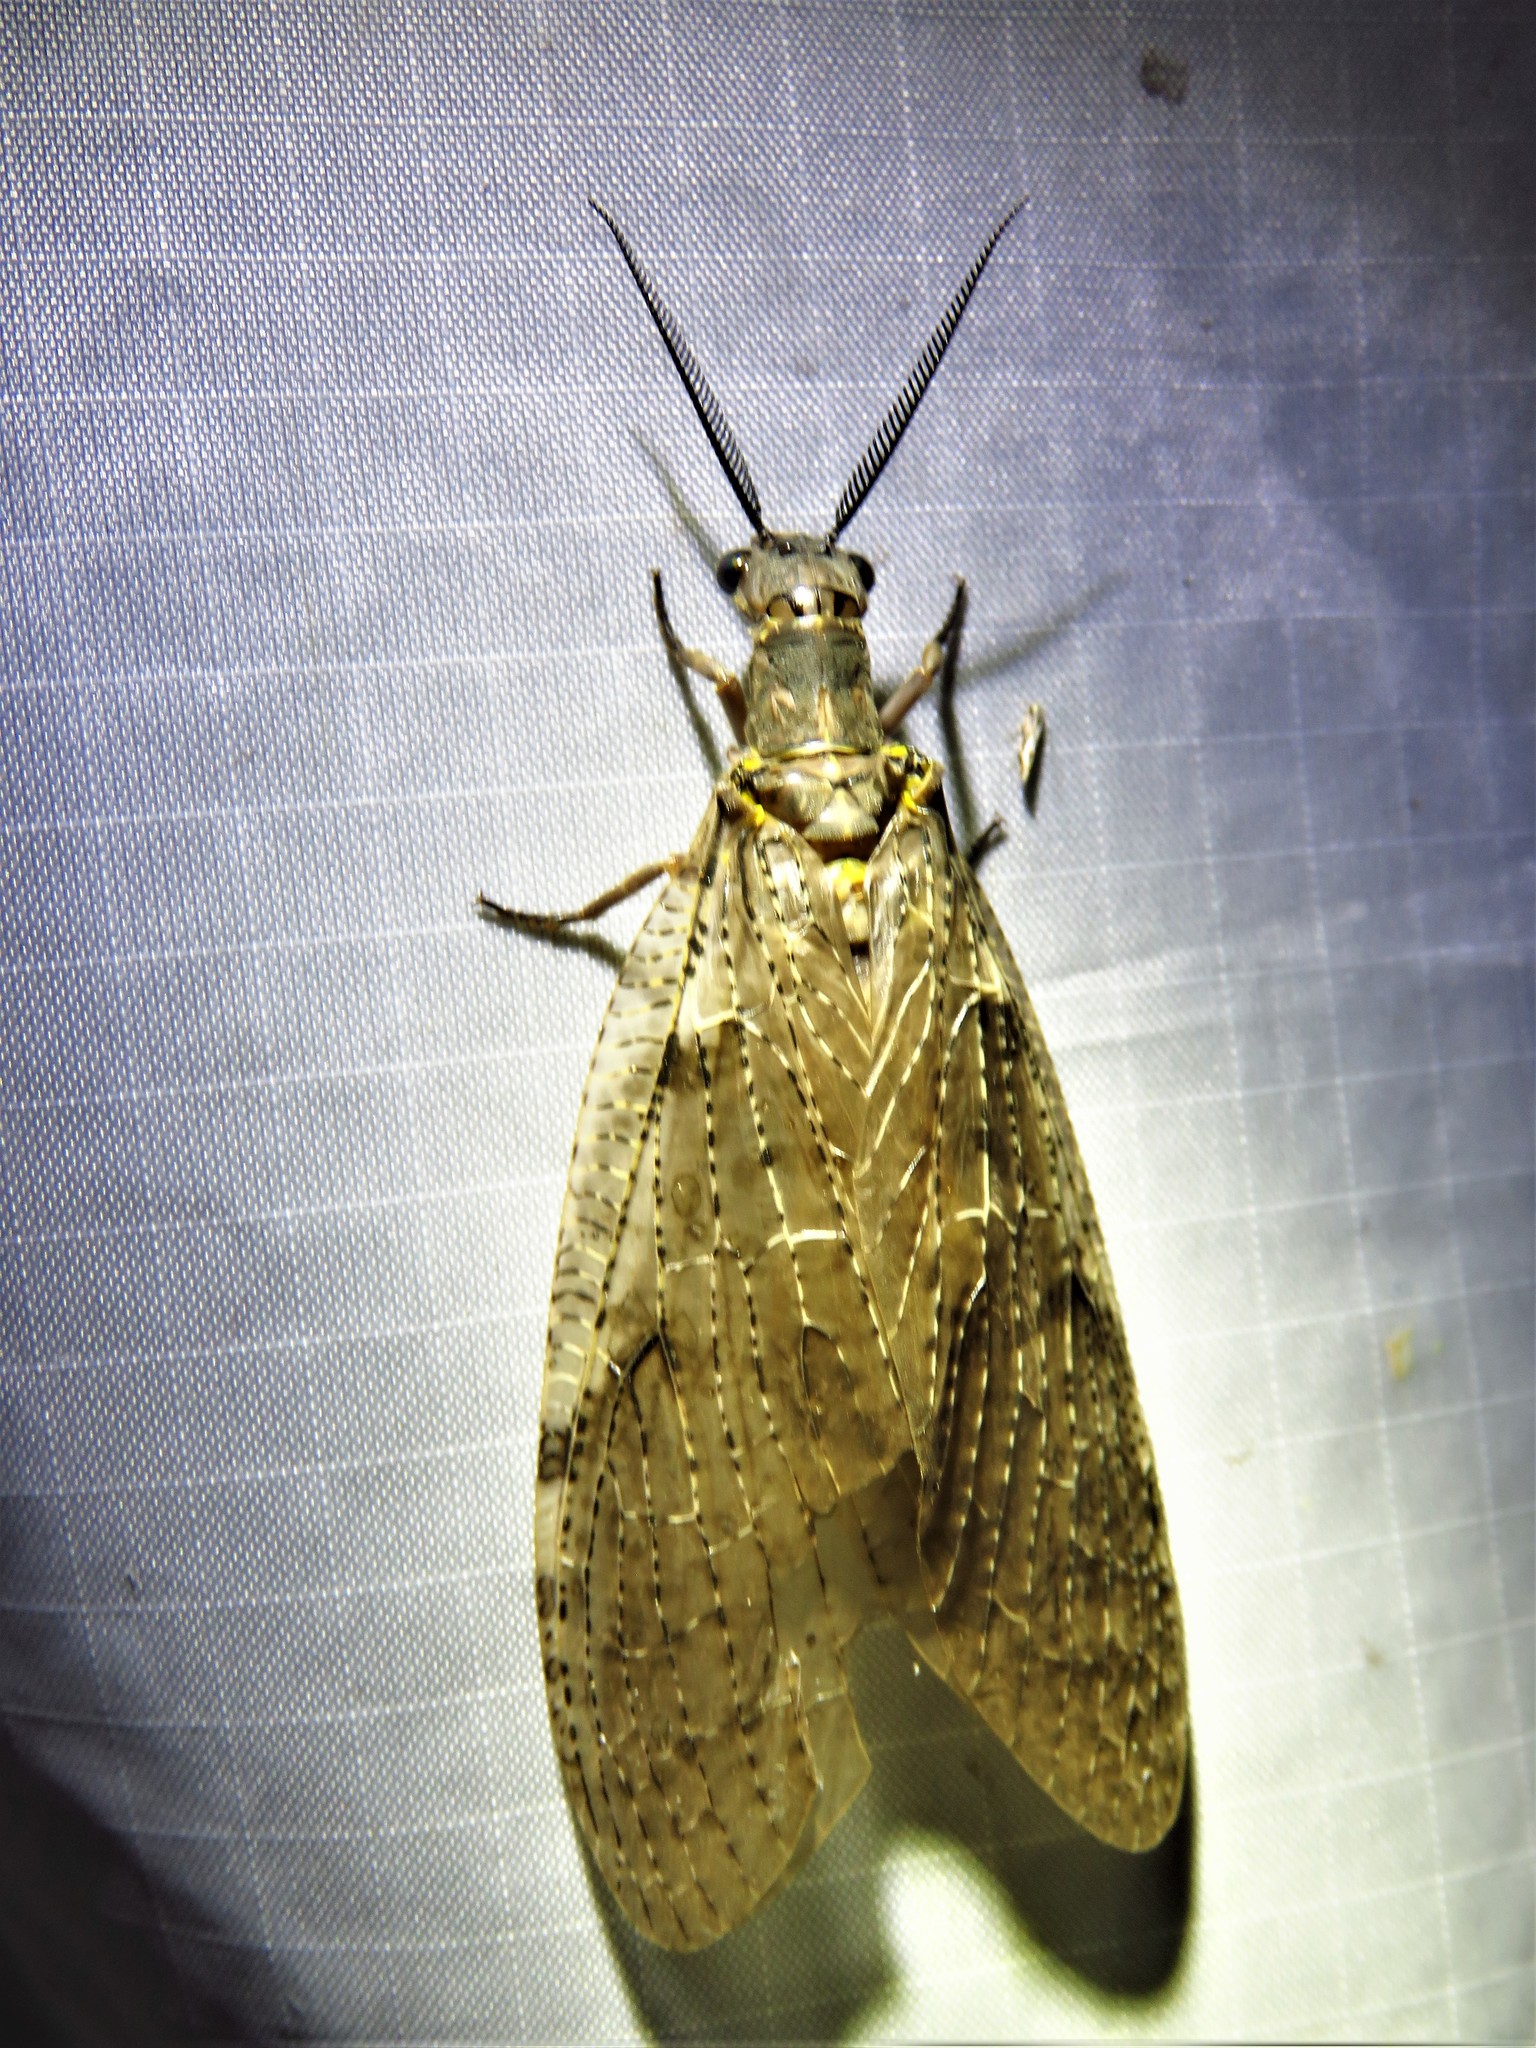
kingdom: Animalia
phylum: Arthropoda
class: Insecta
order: Megaloptera
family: Corydalidae
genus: Chauliodes
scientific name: Chauliodes pectinicornis
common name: Summer fishfly
